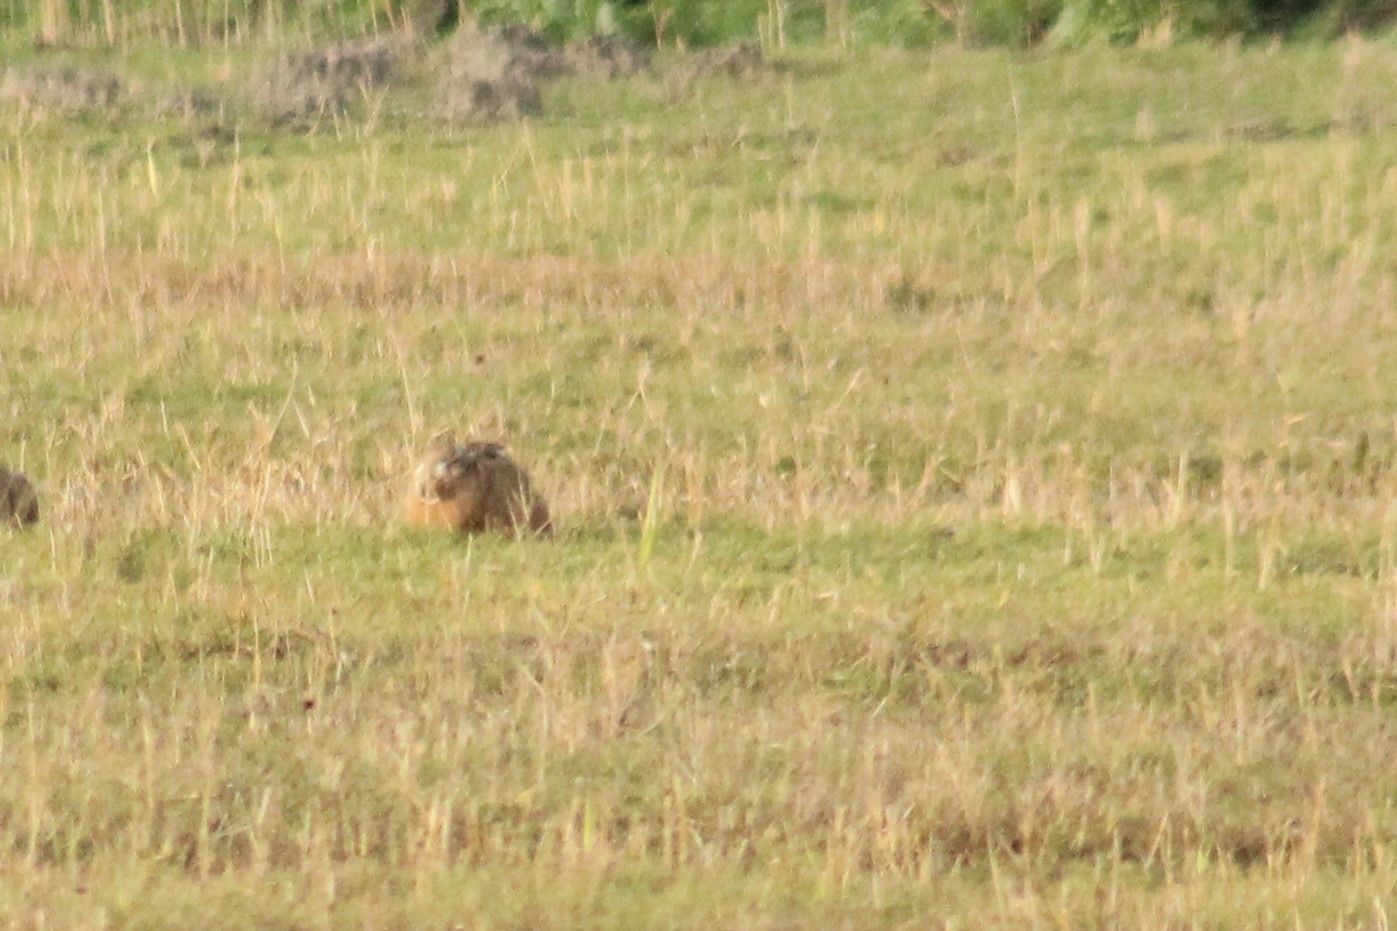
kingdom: Animalia
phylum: Chordata
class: Mammalia
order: Lagomorpha
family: Leporidae
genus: Lepus
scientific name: Lepus europaeus
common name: European hare
